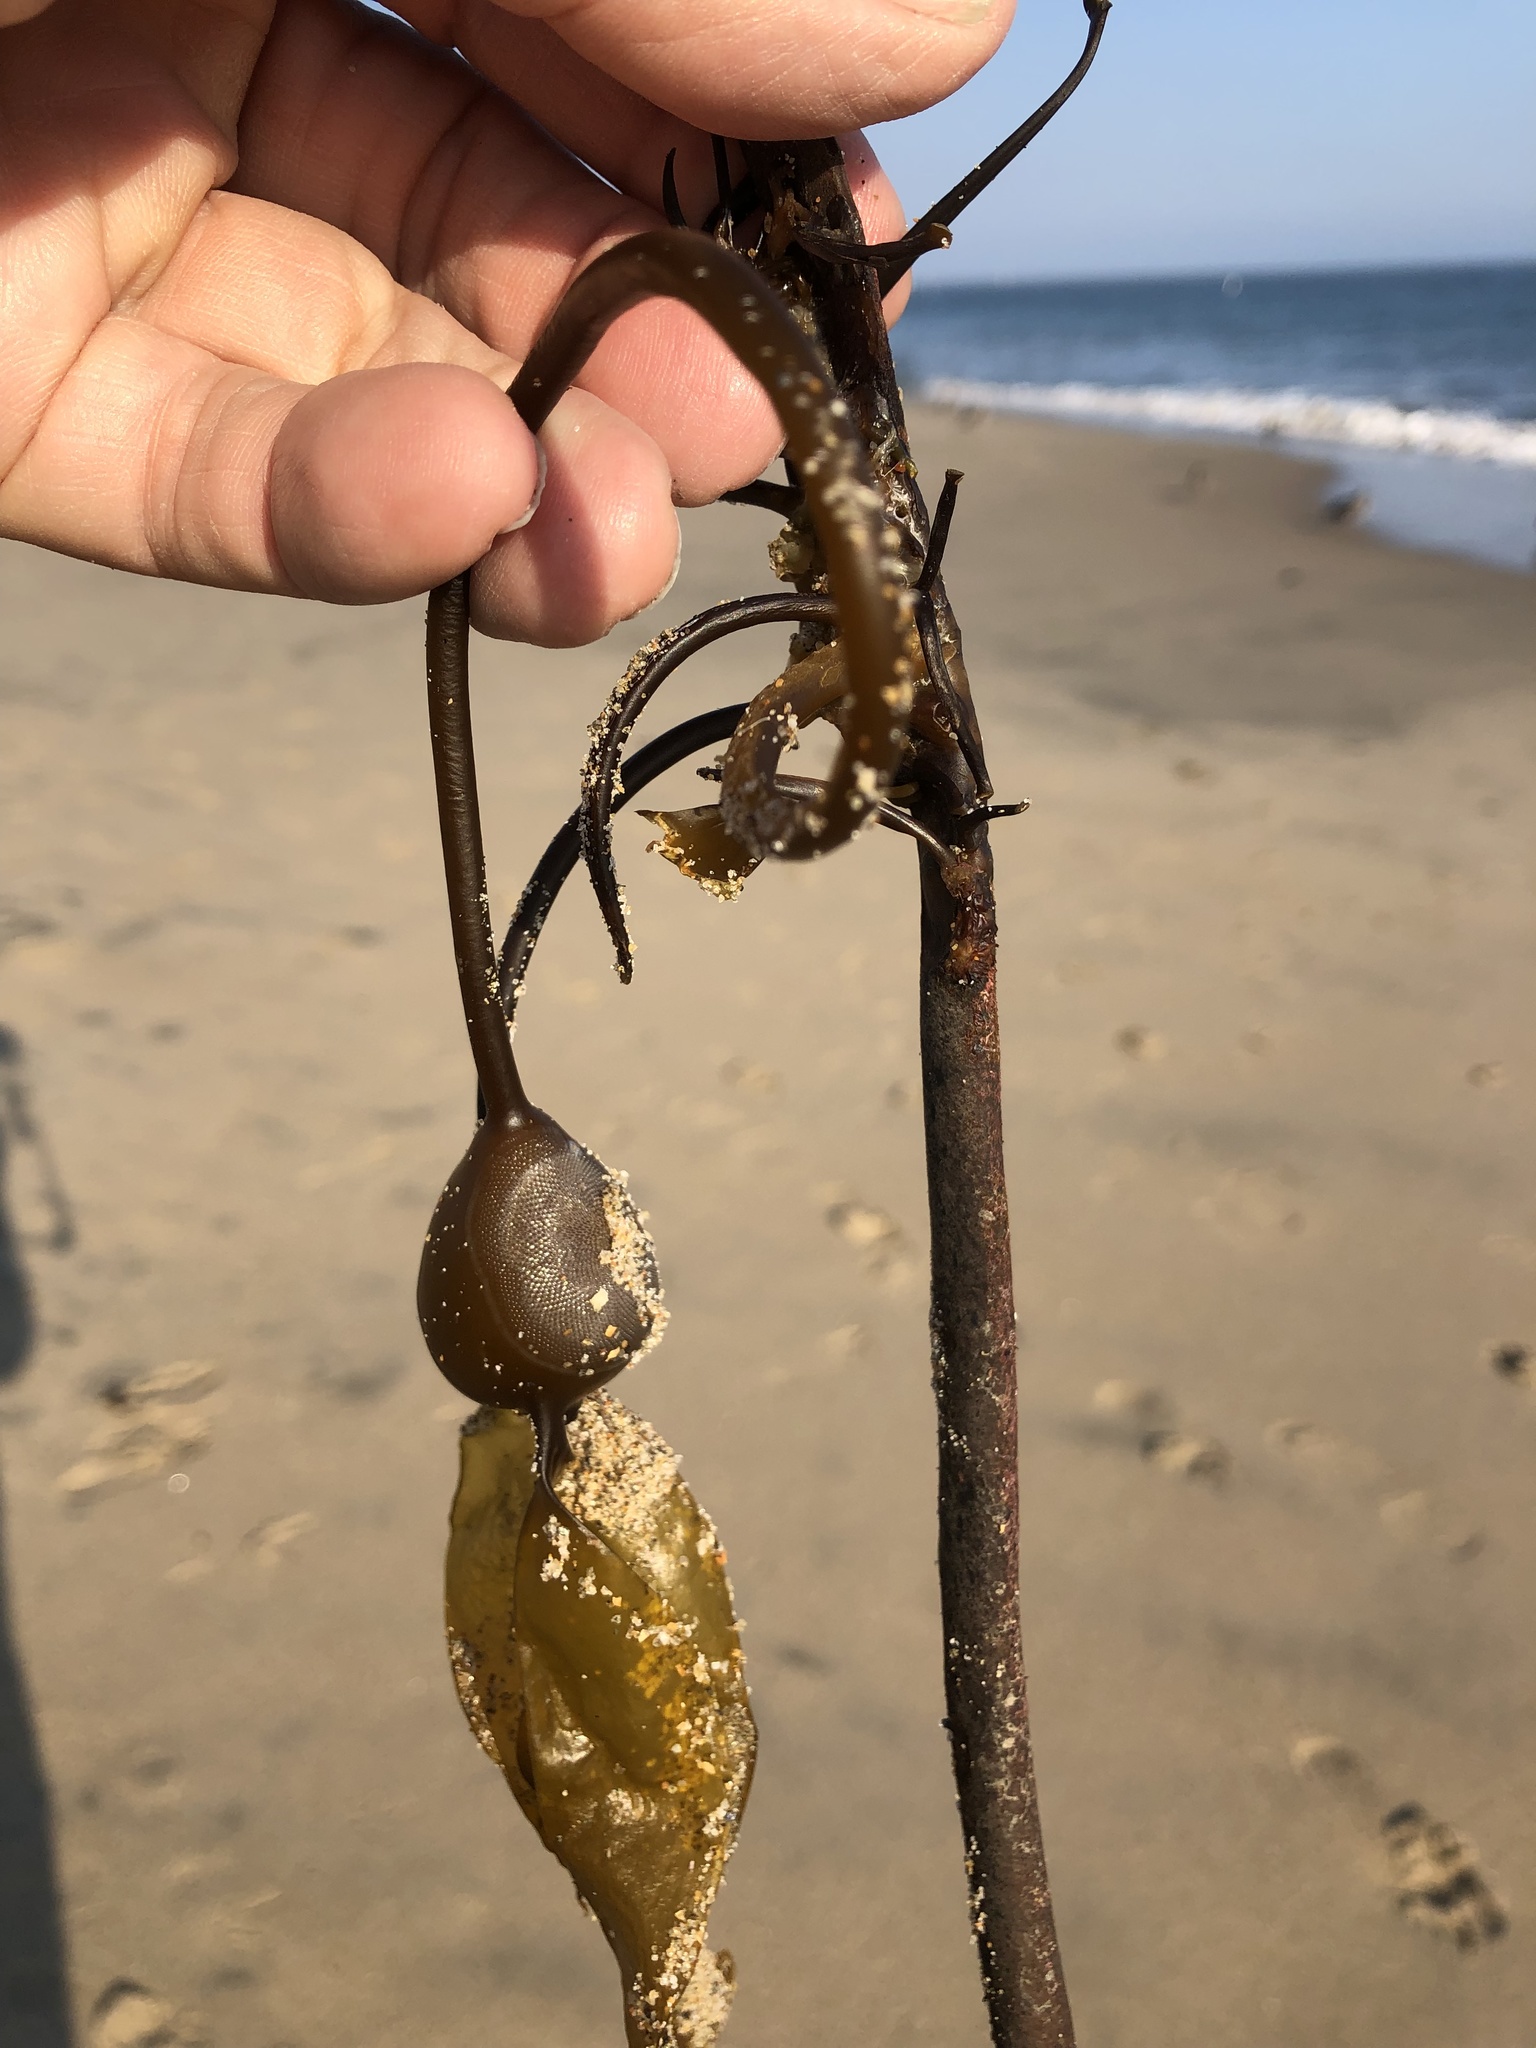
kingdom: Chromista
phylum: Ochrophyta
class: Phaeophyceae
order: Laminariales
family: Laminariaceae
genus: Nereocystis
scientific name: Nereocystis luetkeana
